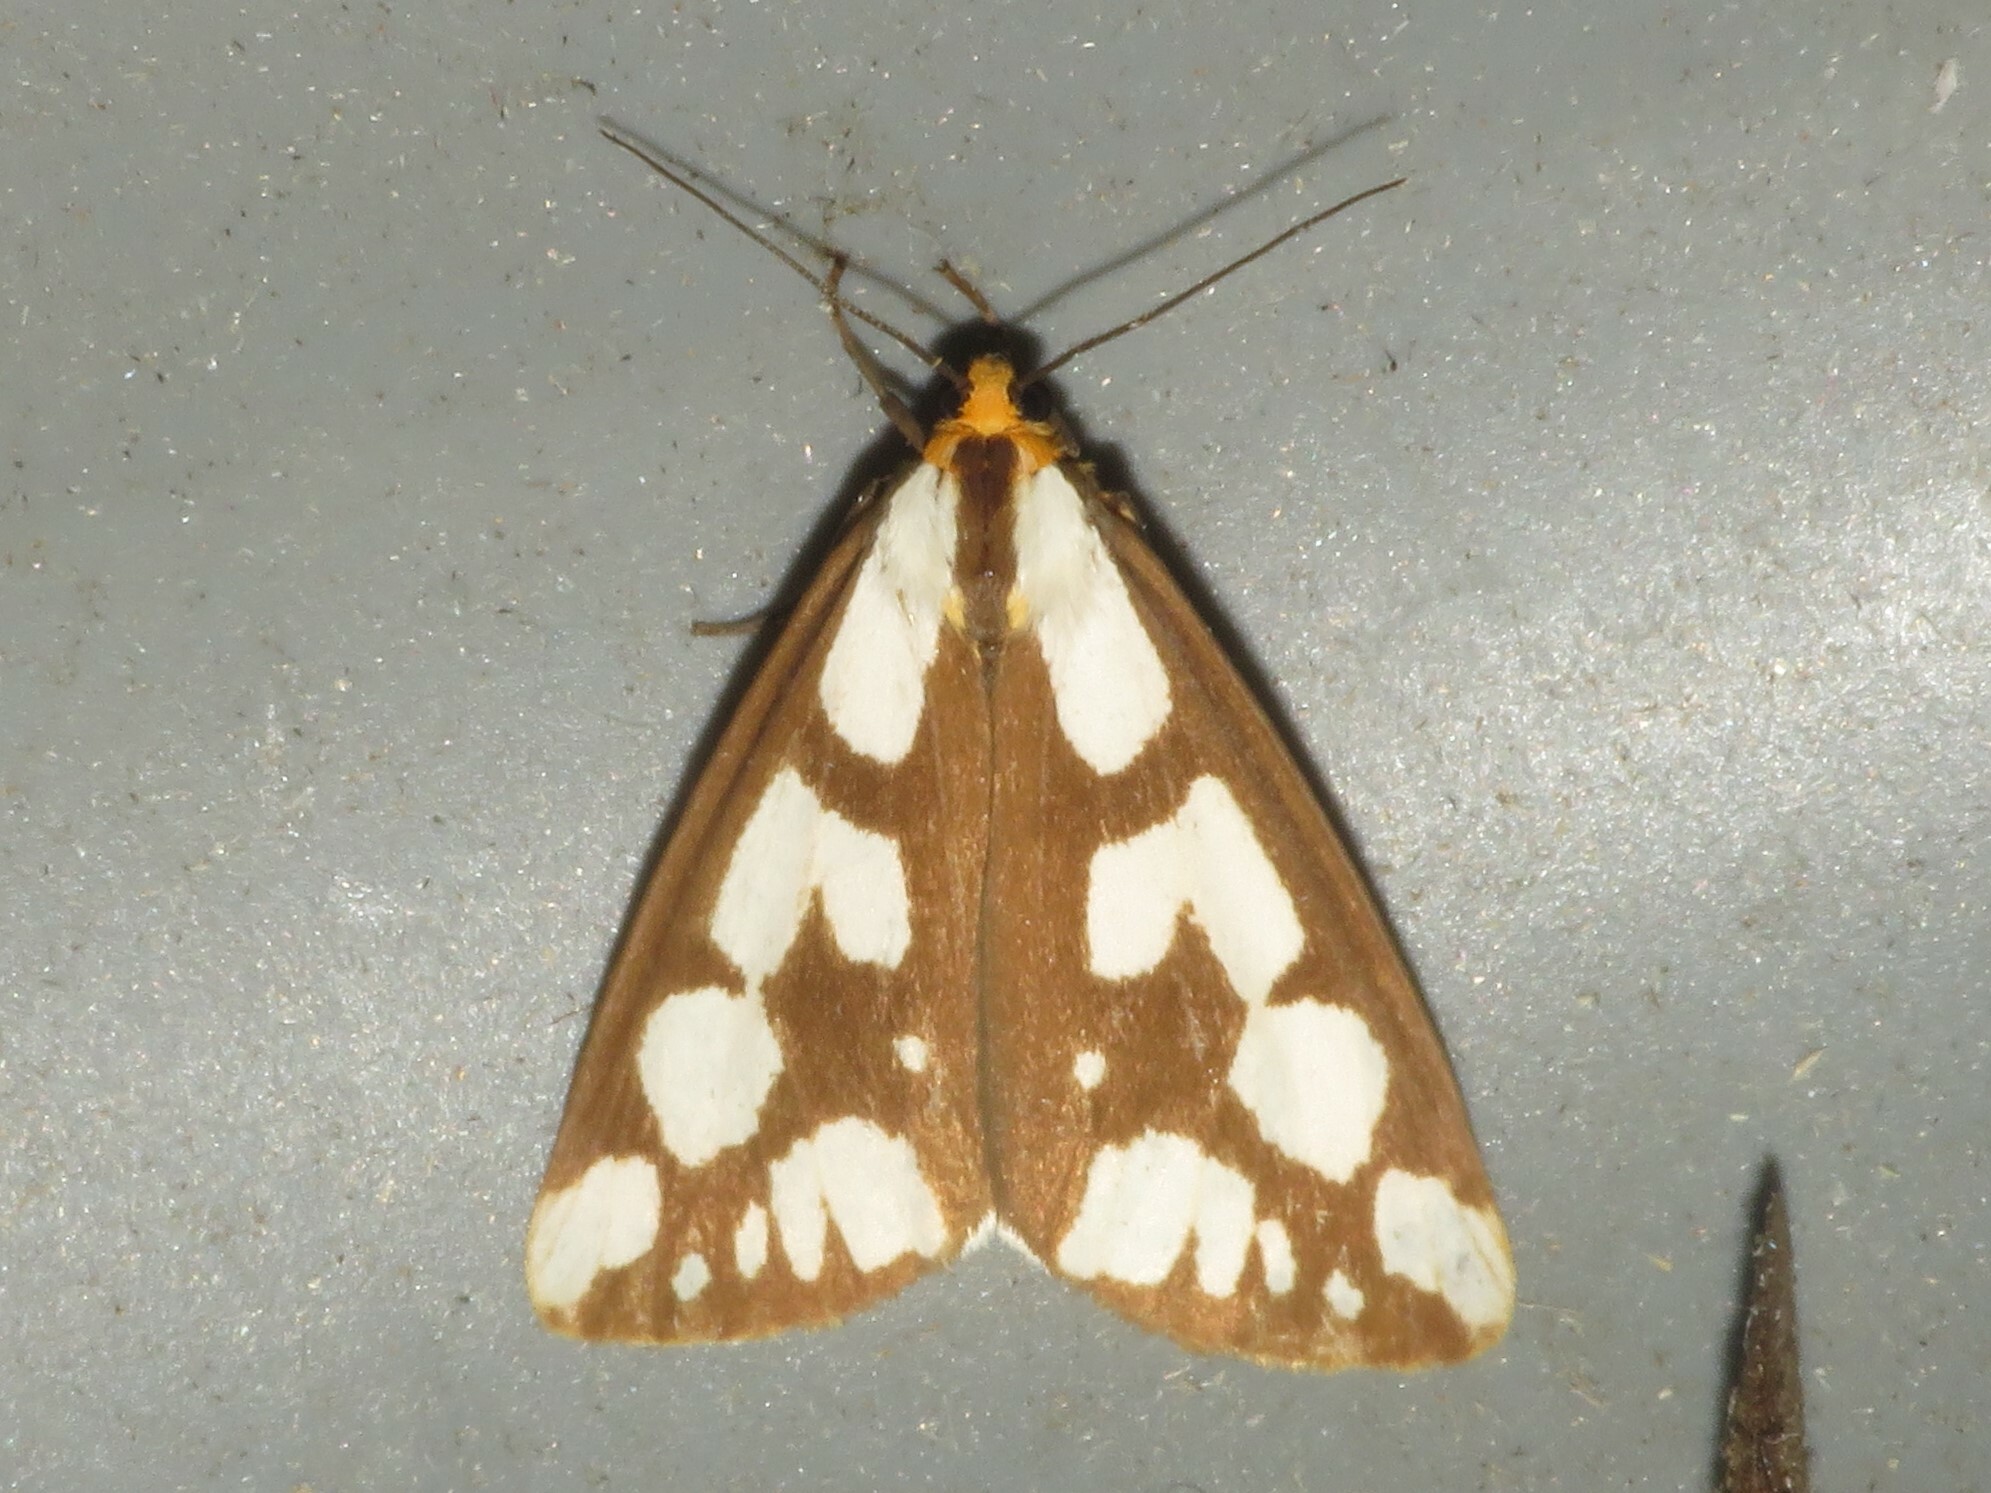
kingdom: Animalia
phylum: Arthropoda
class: Insecta
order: Lepidoptera
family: Erebidae
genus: Haploa
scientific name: Haploa confusa
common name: Confused haploa moth
